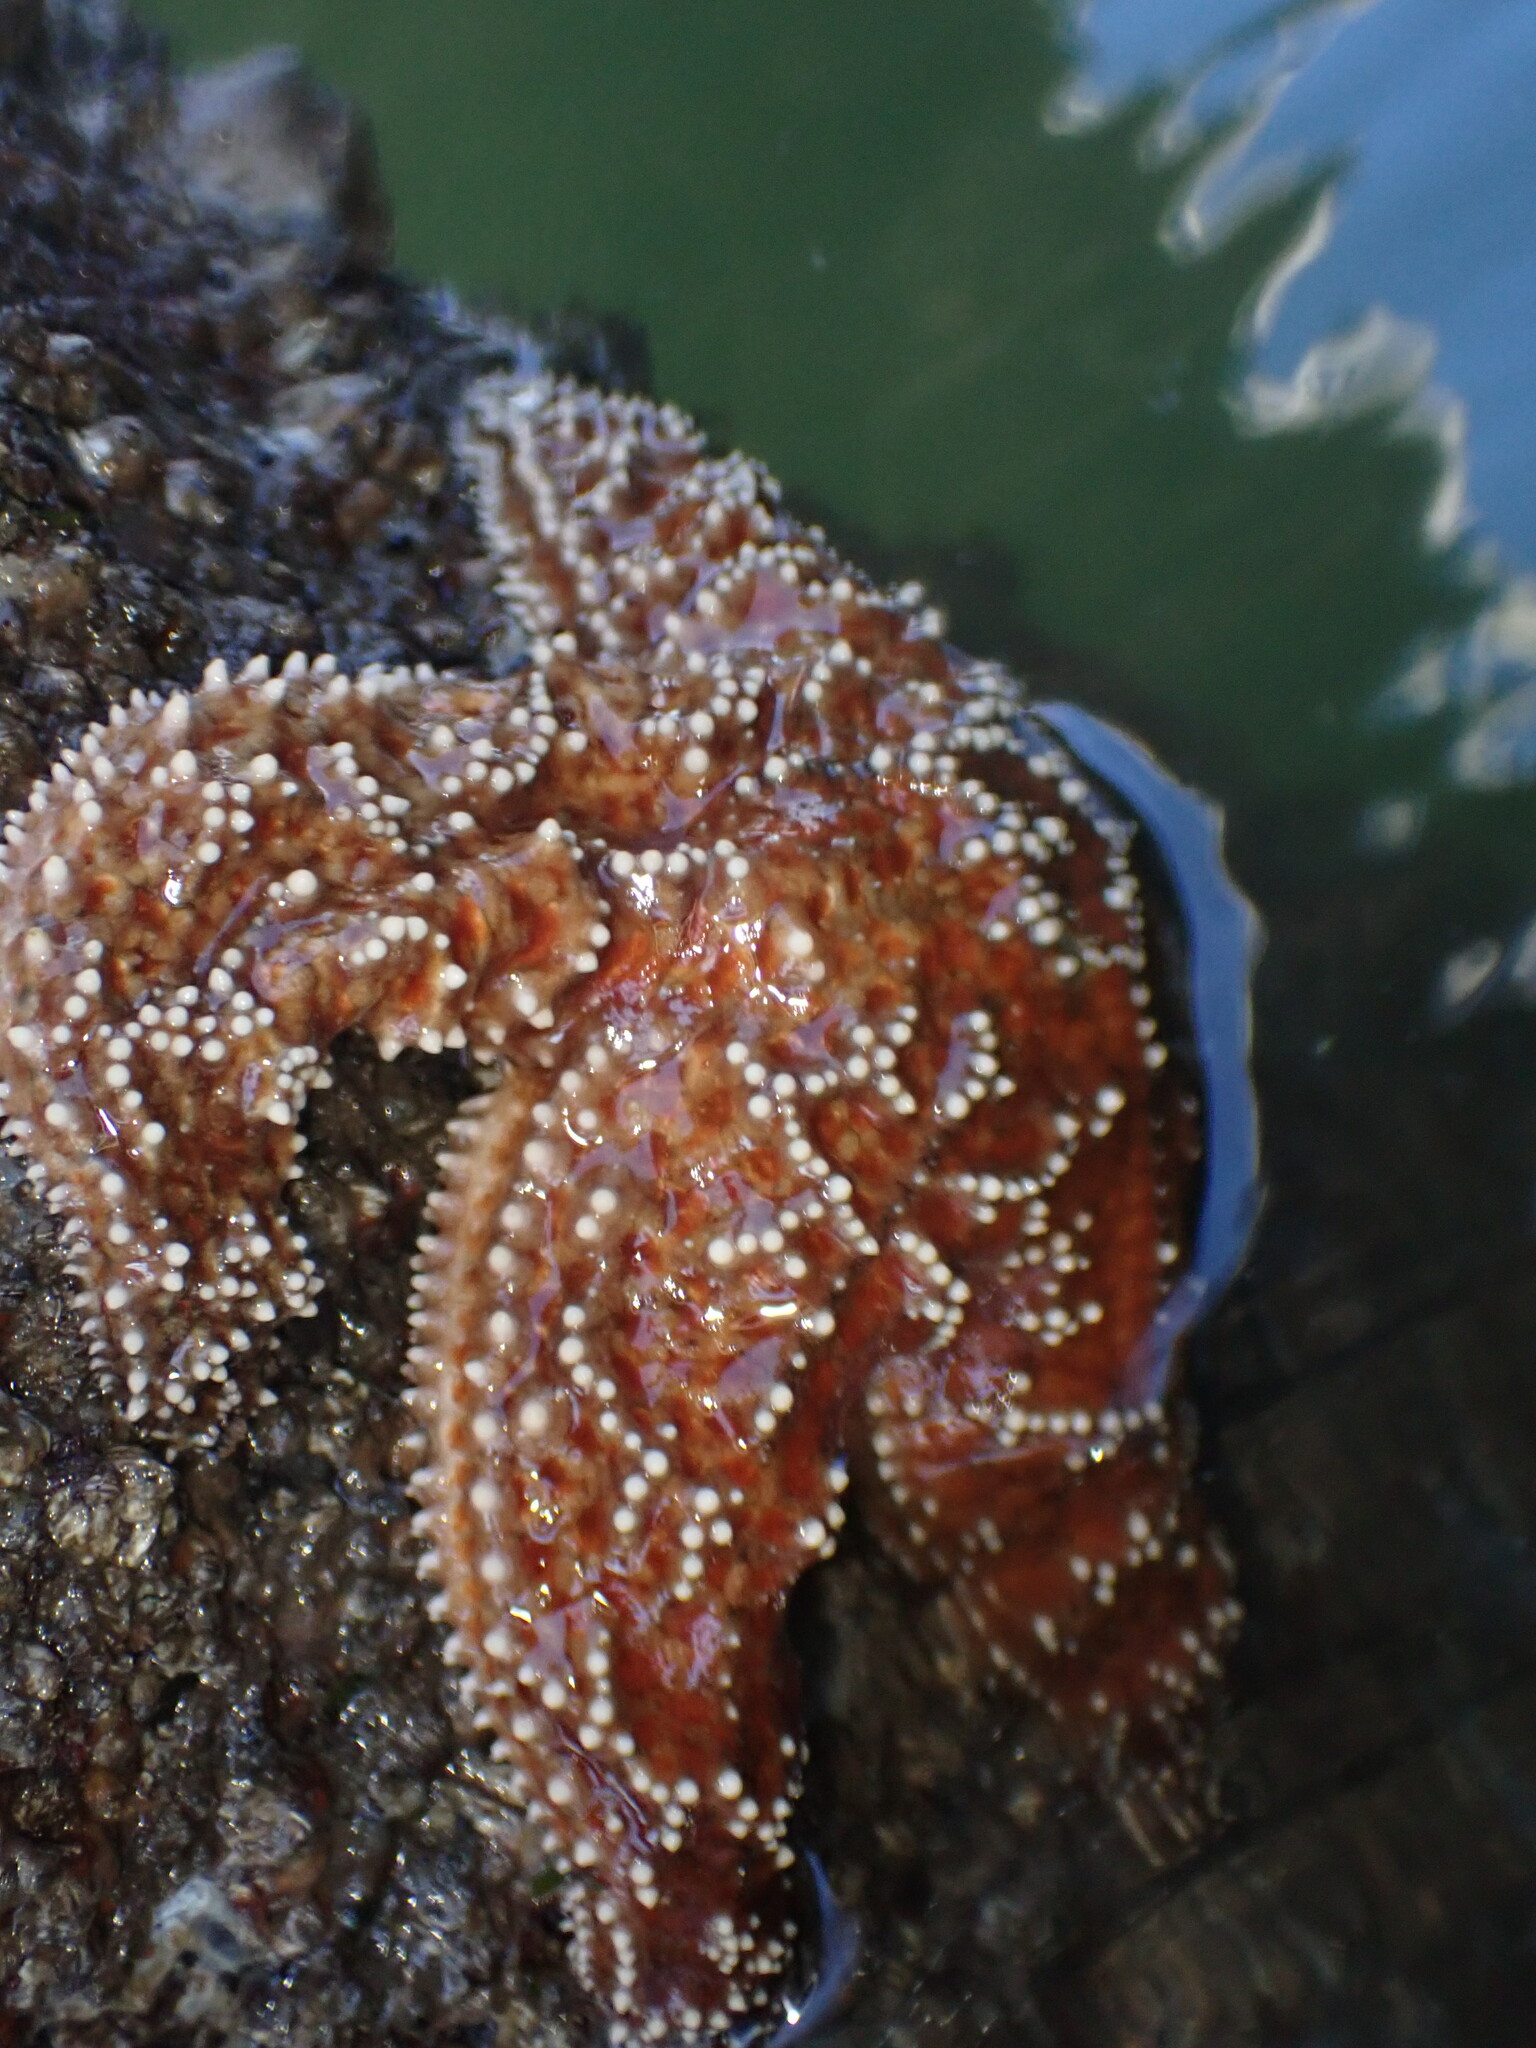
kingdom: Animalia
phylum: Echinodermata
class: Asteroidea
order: Forcipulatida
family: Asteriidae
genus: Pisaster
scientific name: Pisaster ochraceus
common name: Ochre stars
